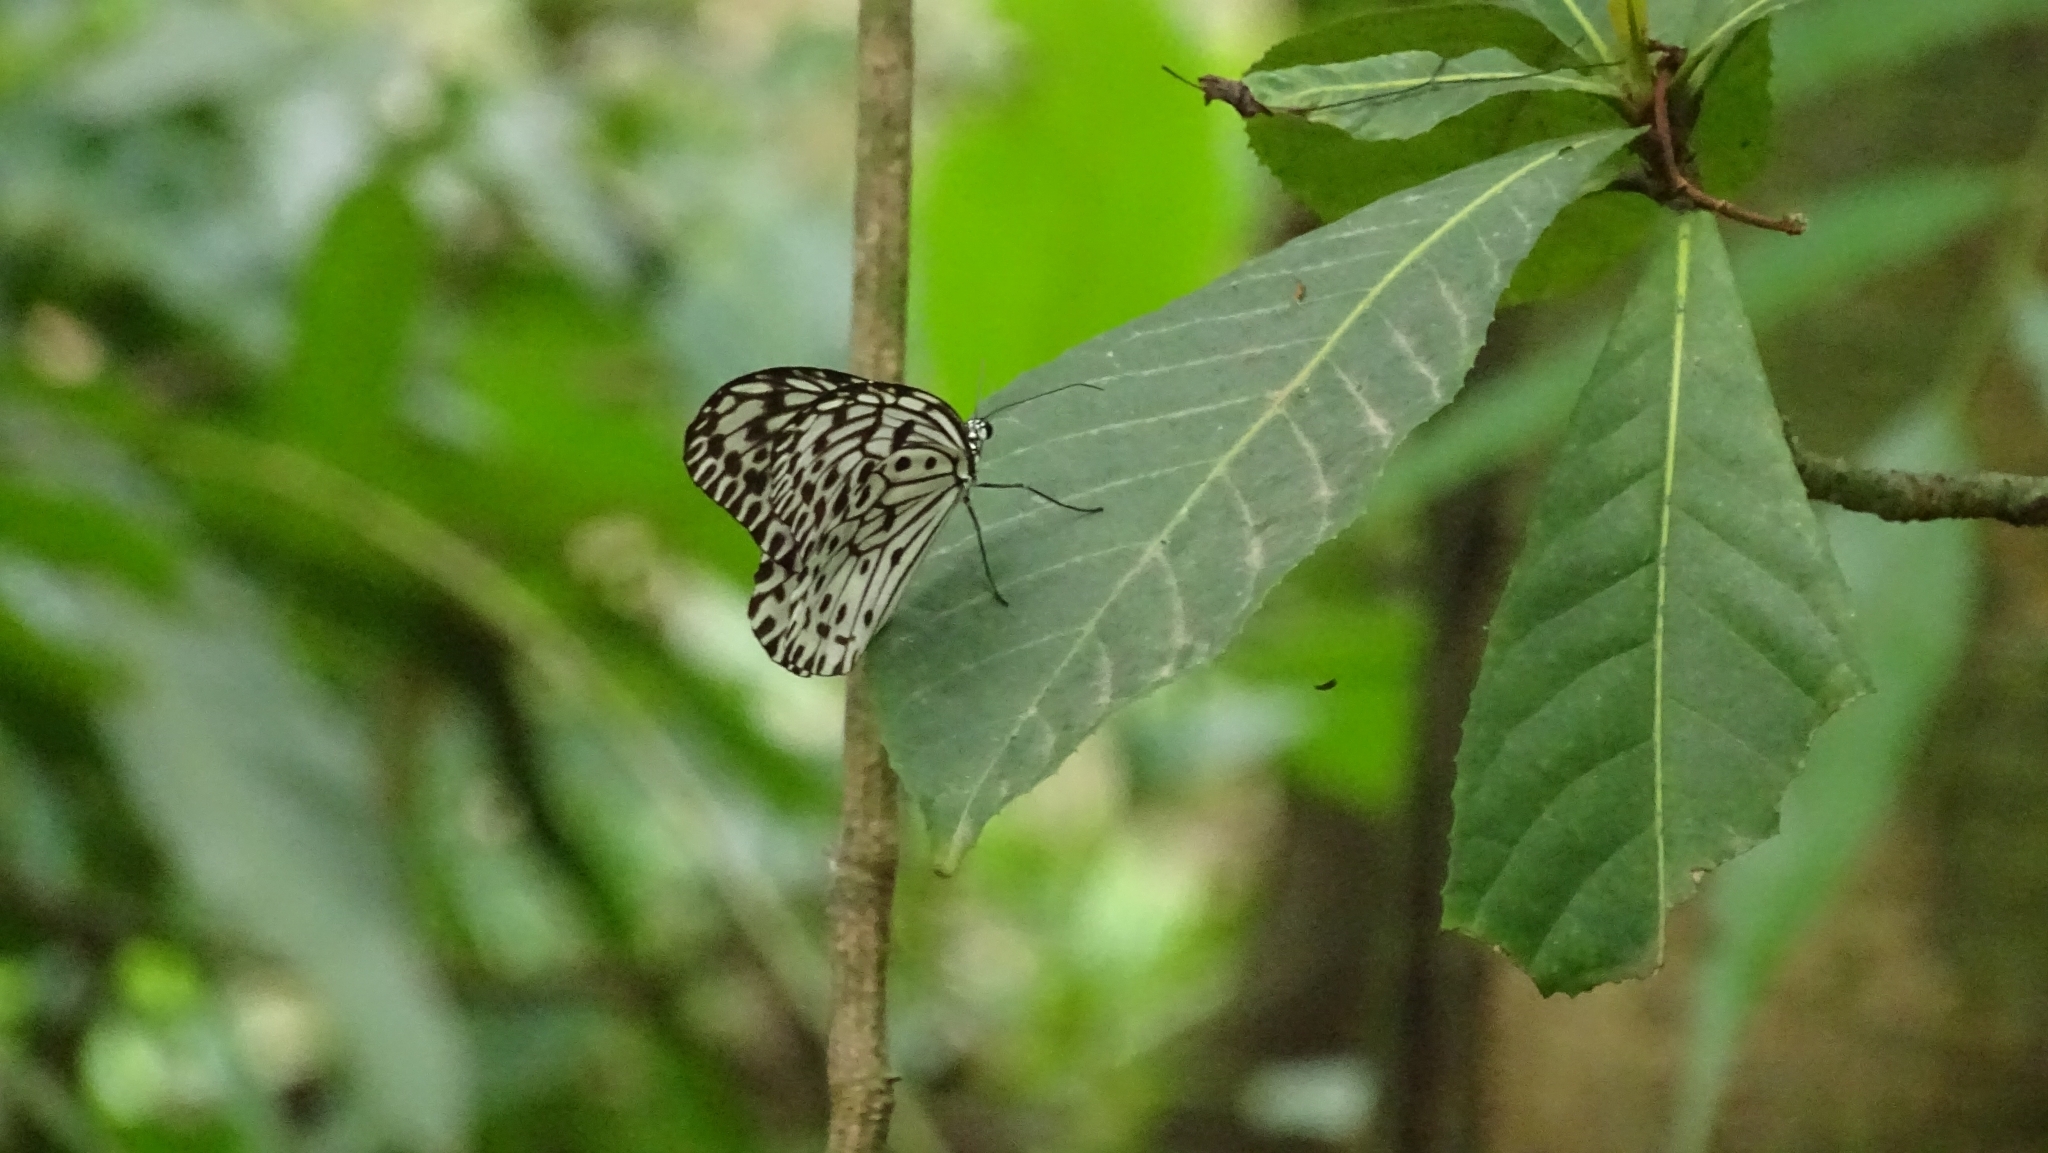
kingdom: Animalia
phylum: Arthropoda
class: Insecta
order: Lepidoptera
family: Nymphalidae
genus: Idea
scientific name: Idea malabarica
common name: Malabar tree-nymph
